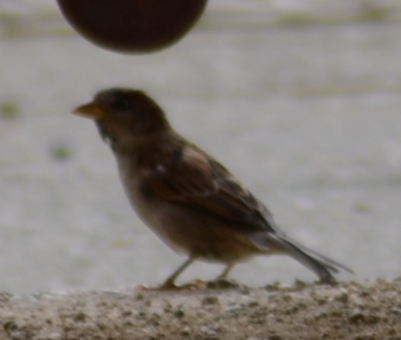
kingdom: Animalia
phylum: Chordata
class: Aves
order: Passeriformes
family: Passeridae
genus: Passer
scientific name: Passer domesticus
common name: House sparrow
